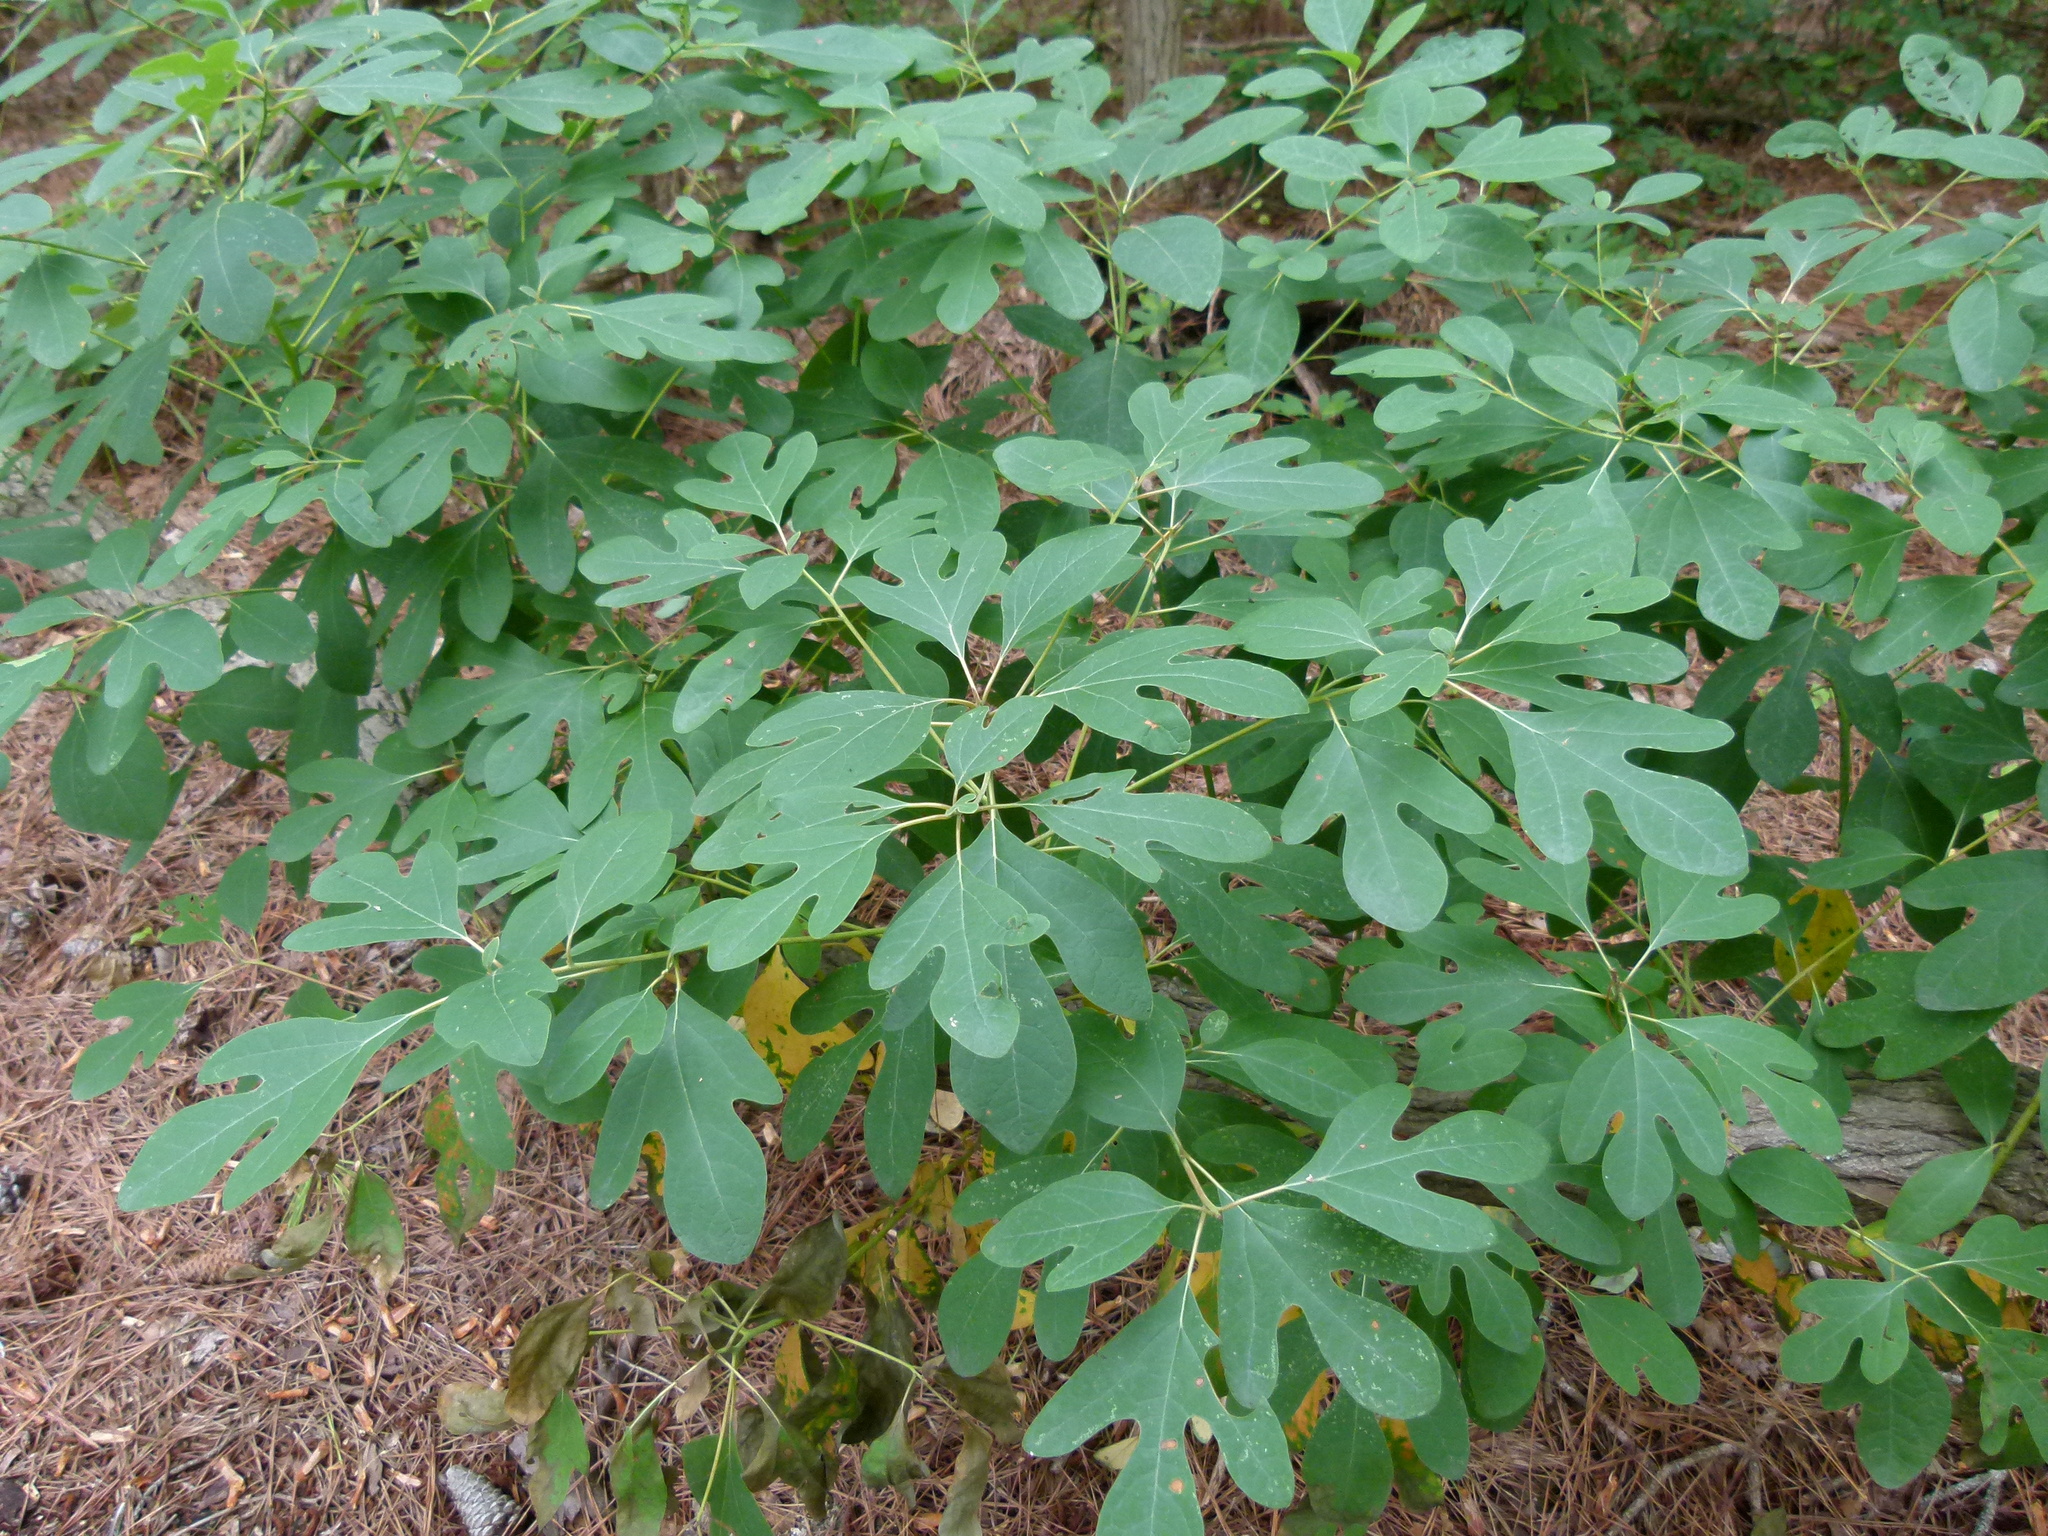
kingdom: Plantae
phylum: Tracheophyta
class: Magnoliopsida
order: Laurales
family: Lauraceae
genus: Sassafras
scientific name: Sassafras albidum
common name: Sassafras
